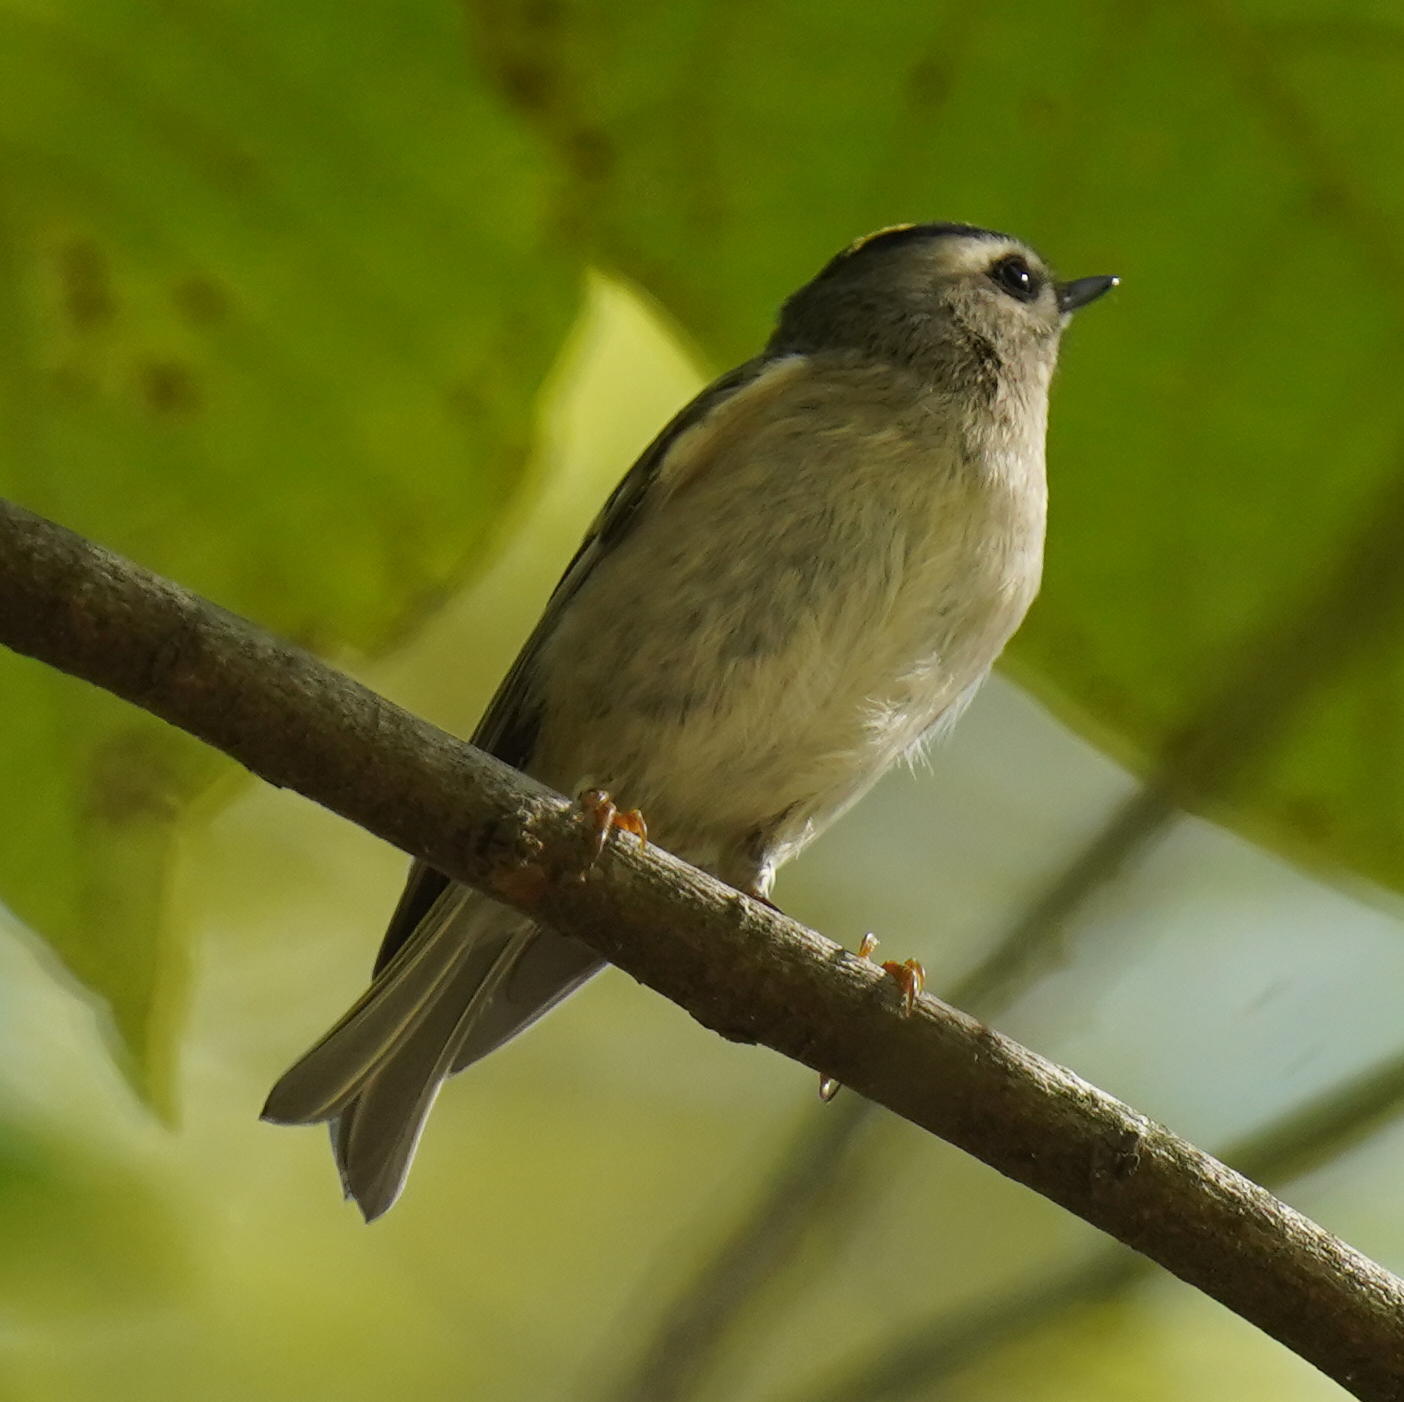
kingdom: Animalia
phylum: Chordata
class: Aves
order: Passeriformes
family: Regulidae
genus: Regulus
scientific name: Regulus satrapa
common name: Golden-crowned kinglet
